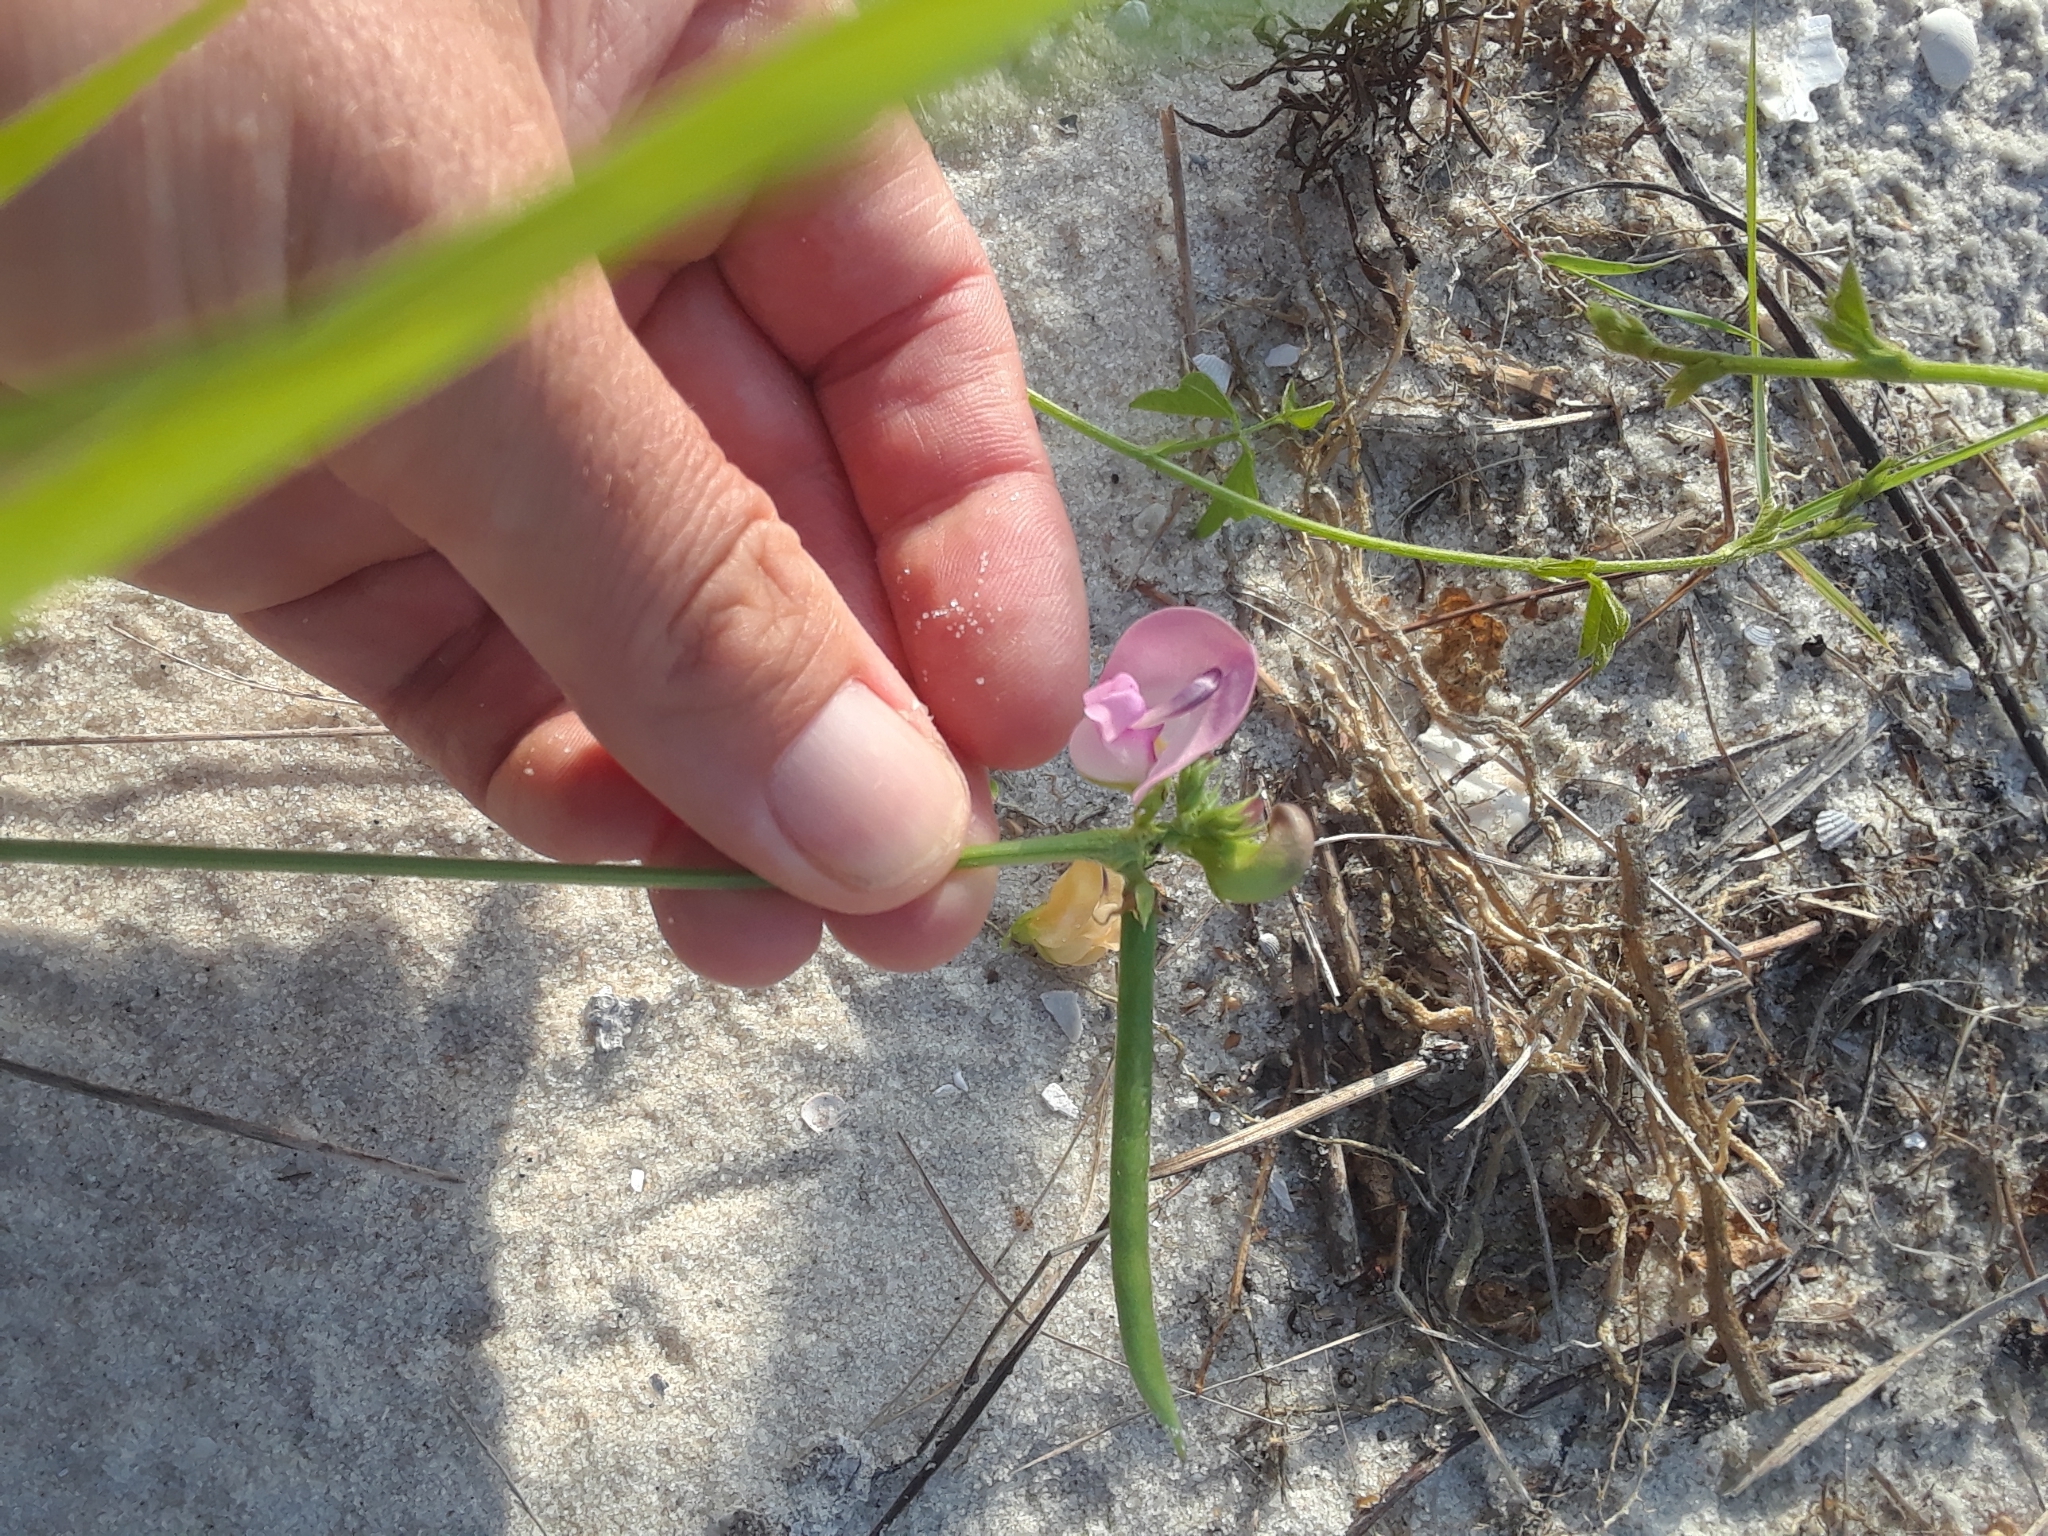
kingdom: Plantae
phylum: Tracheophyta
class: Magnoliopsida
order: Fabales
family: Fabaceae
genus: Strophostyles
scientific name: Strophostyles helvola
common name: Trailing wild bean
